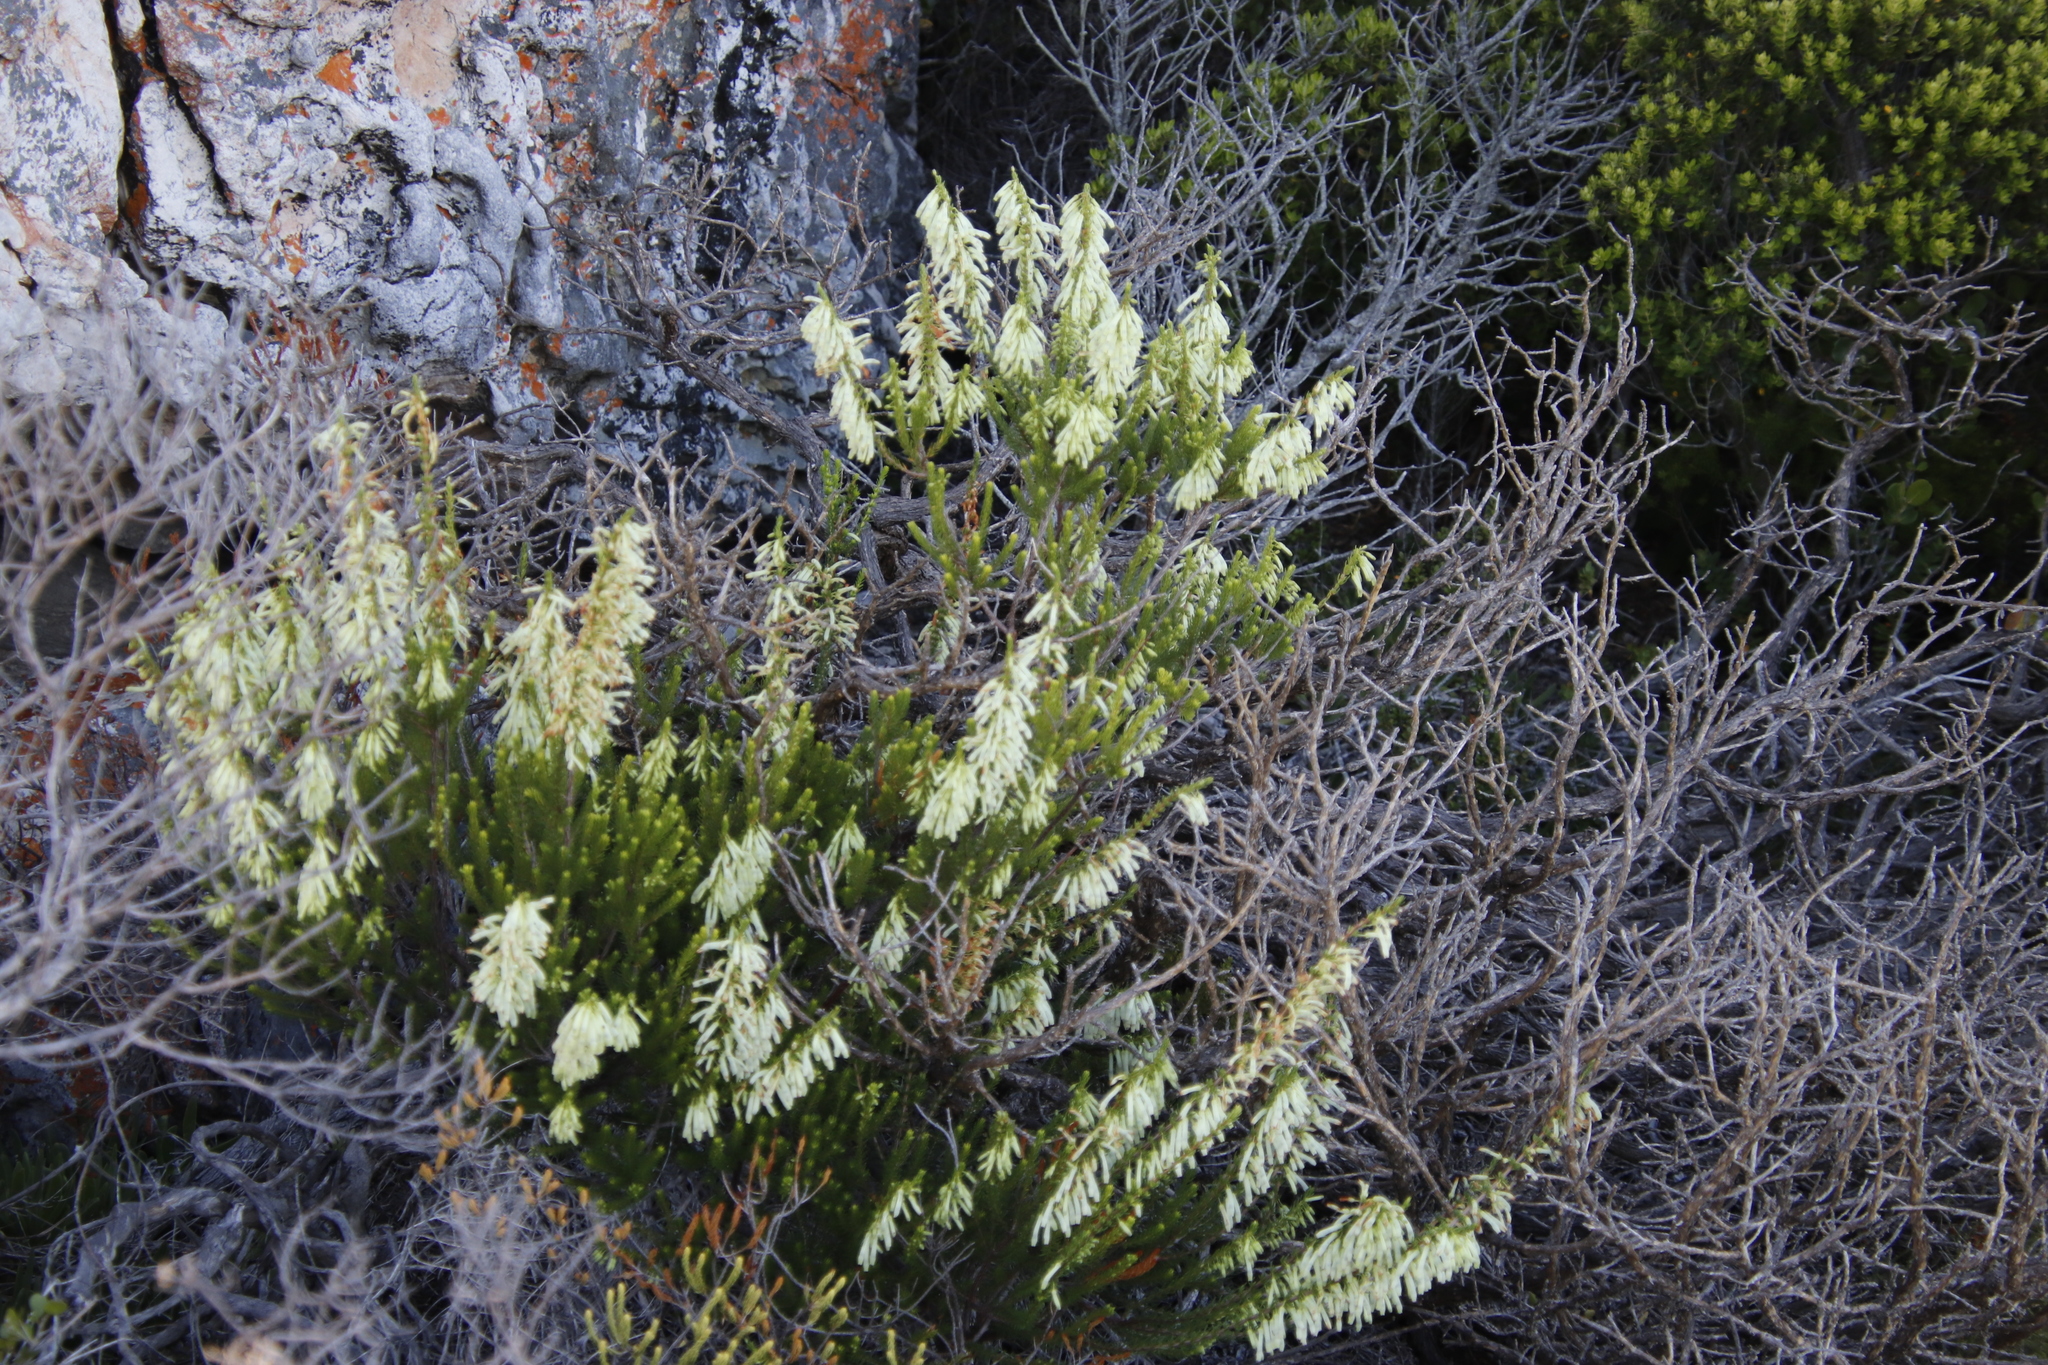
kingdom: Plantae
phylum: Tracheophyta
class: Magnoliopsida
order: Ericales
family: Ericaceae
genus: Erica
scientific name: Erica mammosa
